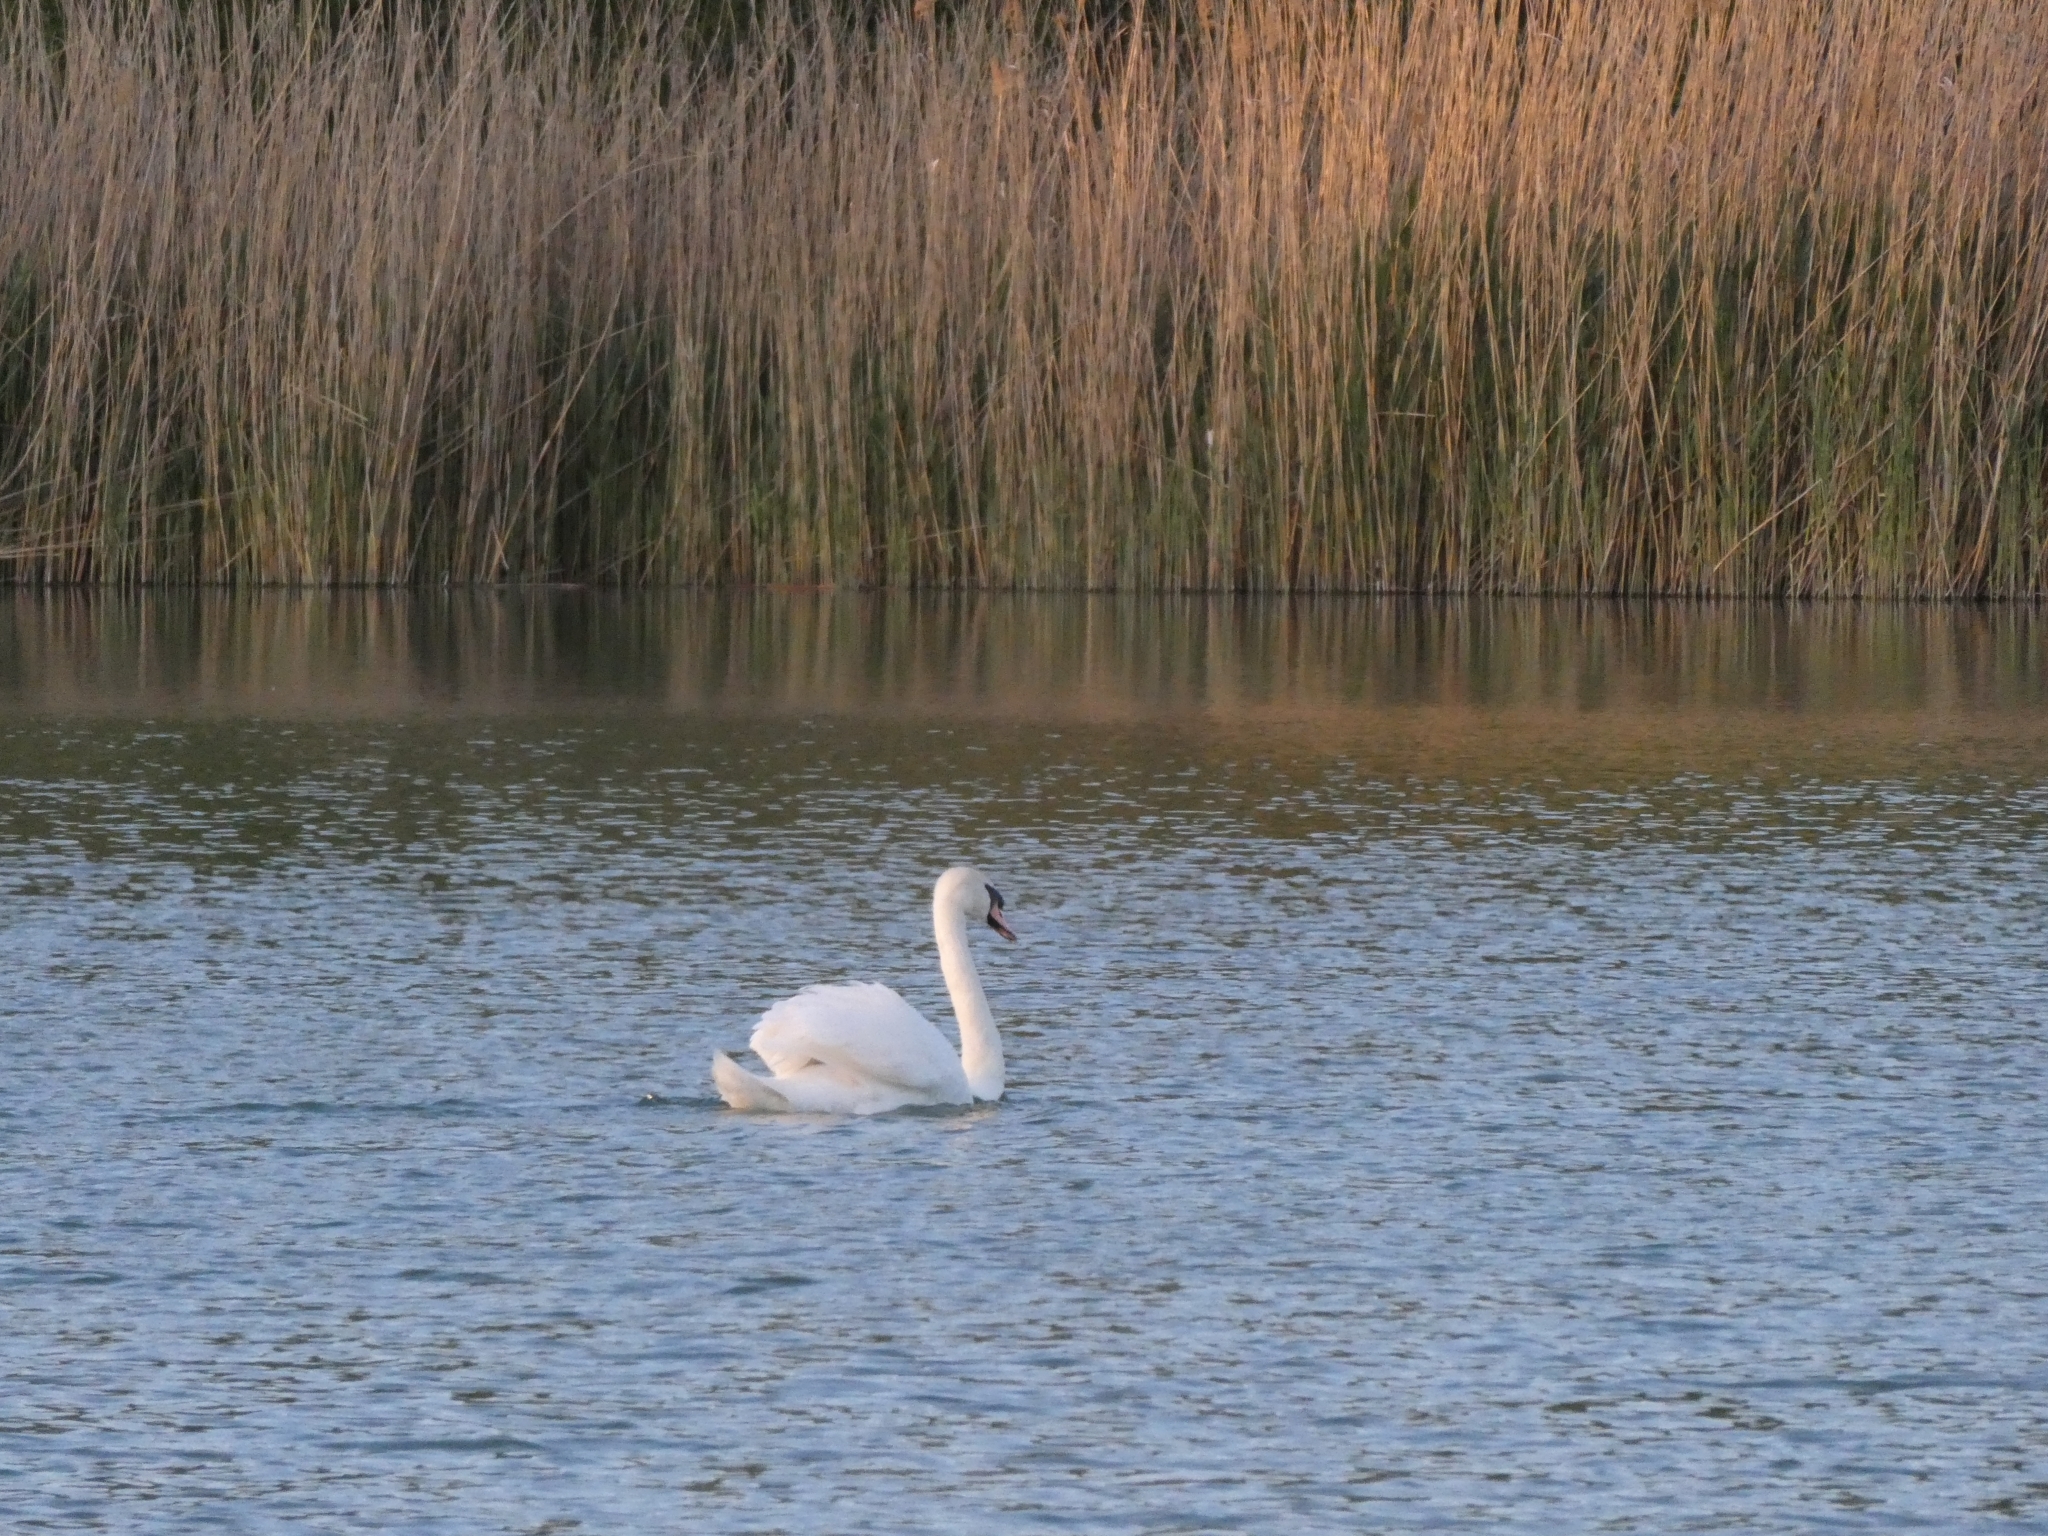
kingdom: Animalia
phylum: Chordata
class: Aves
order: Anseriformes
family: Anatidae
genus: Cygnus
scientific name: Cygnus olor
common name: Mute swan
